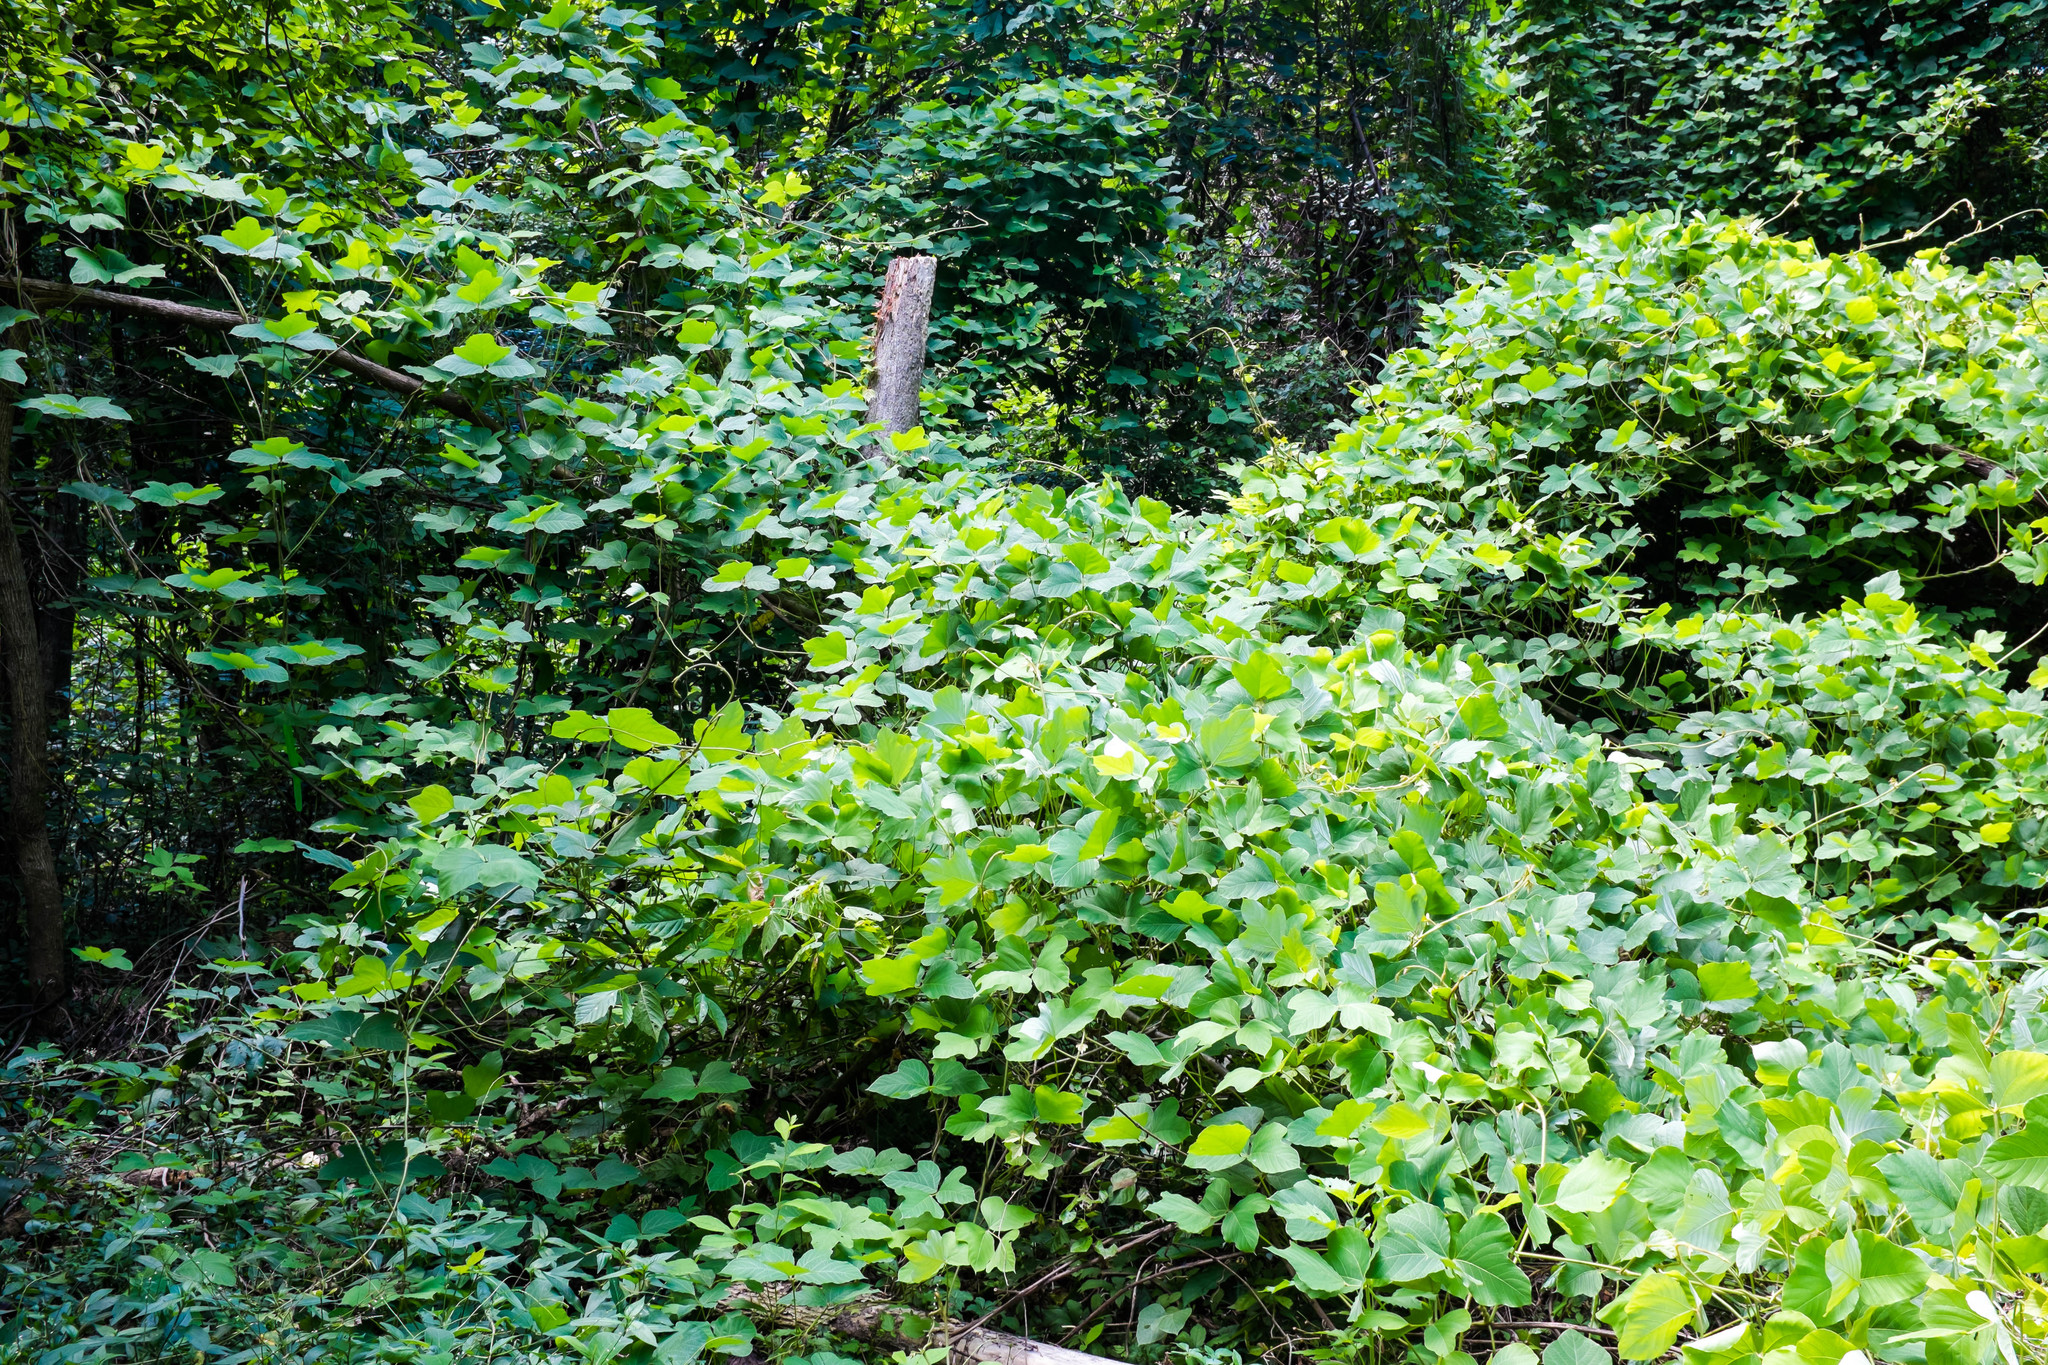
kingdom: Plantae
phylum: Tracheophyta
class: Magnoliopsida
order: Fabales
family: Fabaceae
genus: Pueraria
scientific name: Pueraria montana
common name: Kudzu
